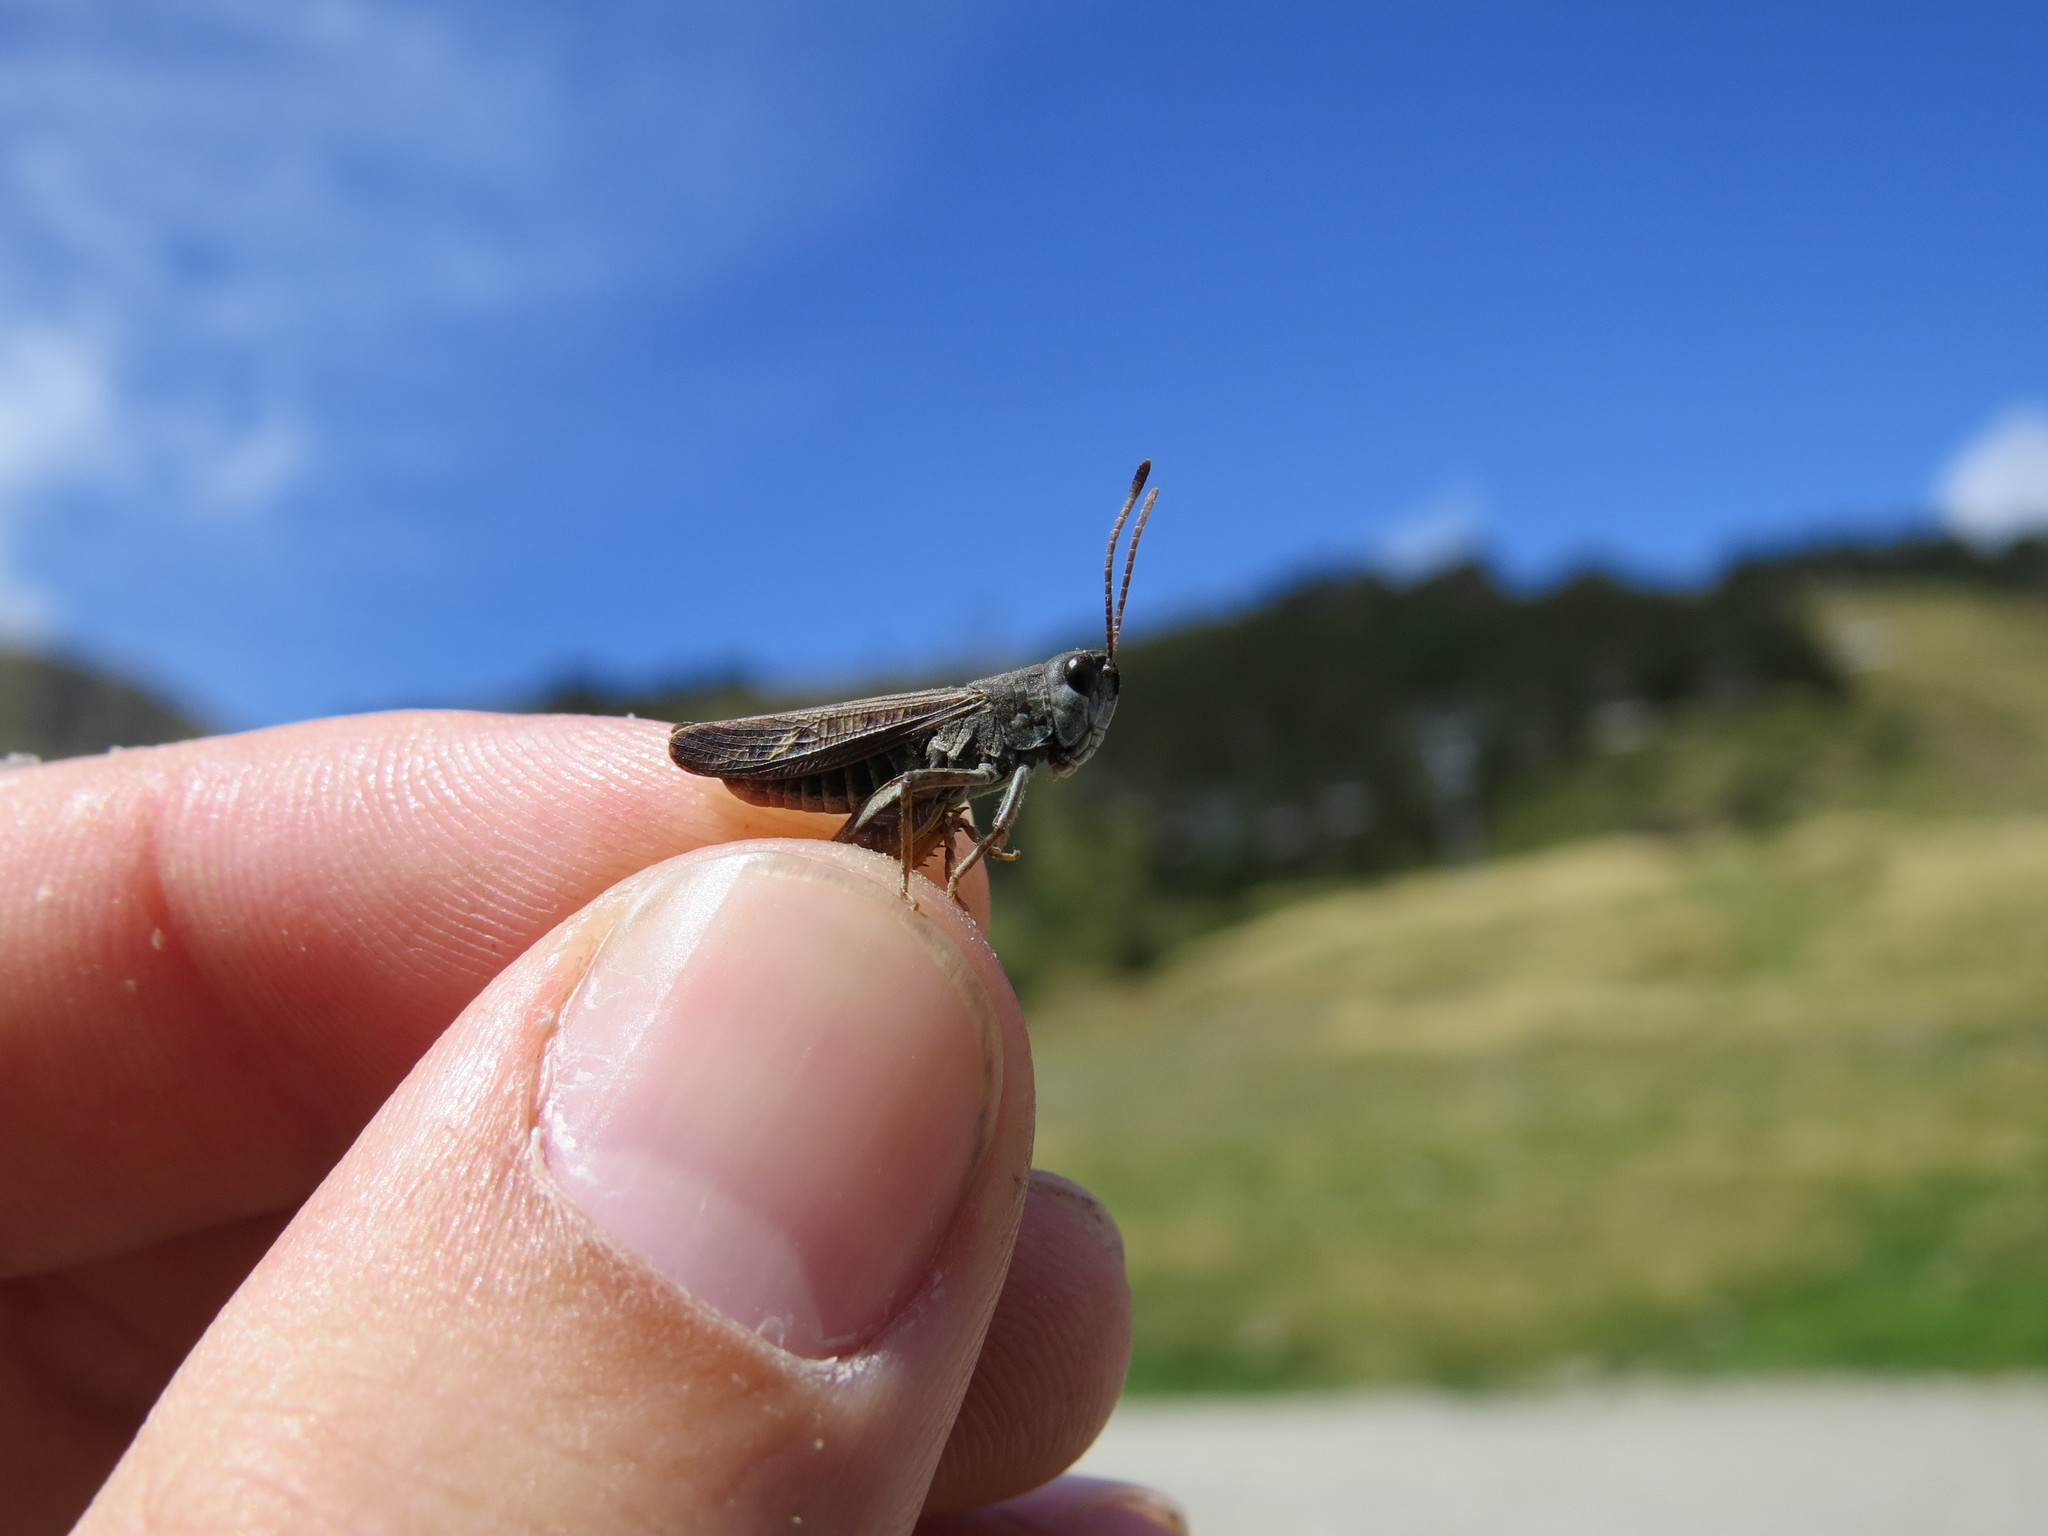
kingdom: Animalia
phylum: Arthropoda
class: Insecta
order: Orthoptera
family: Acrididae
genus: Myrmeleotettix
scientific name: Myrmeleotettix maculatus
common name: Mottled grasshopper
